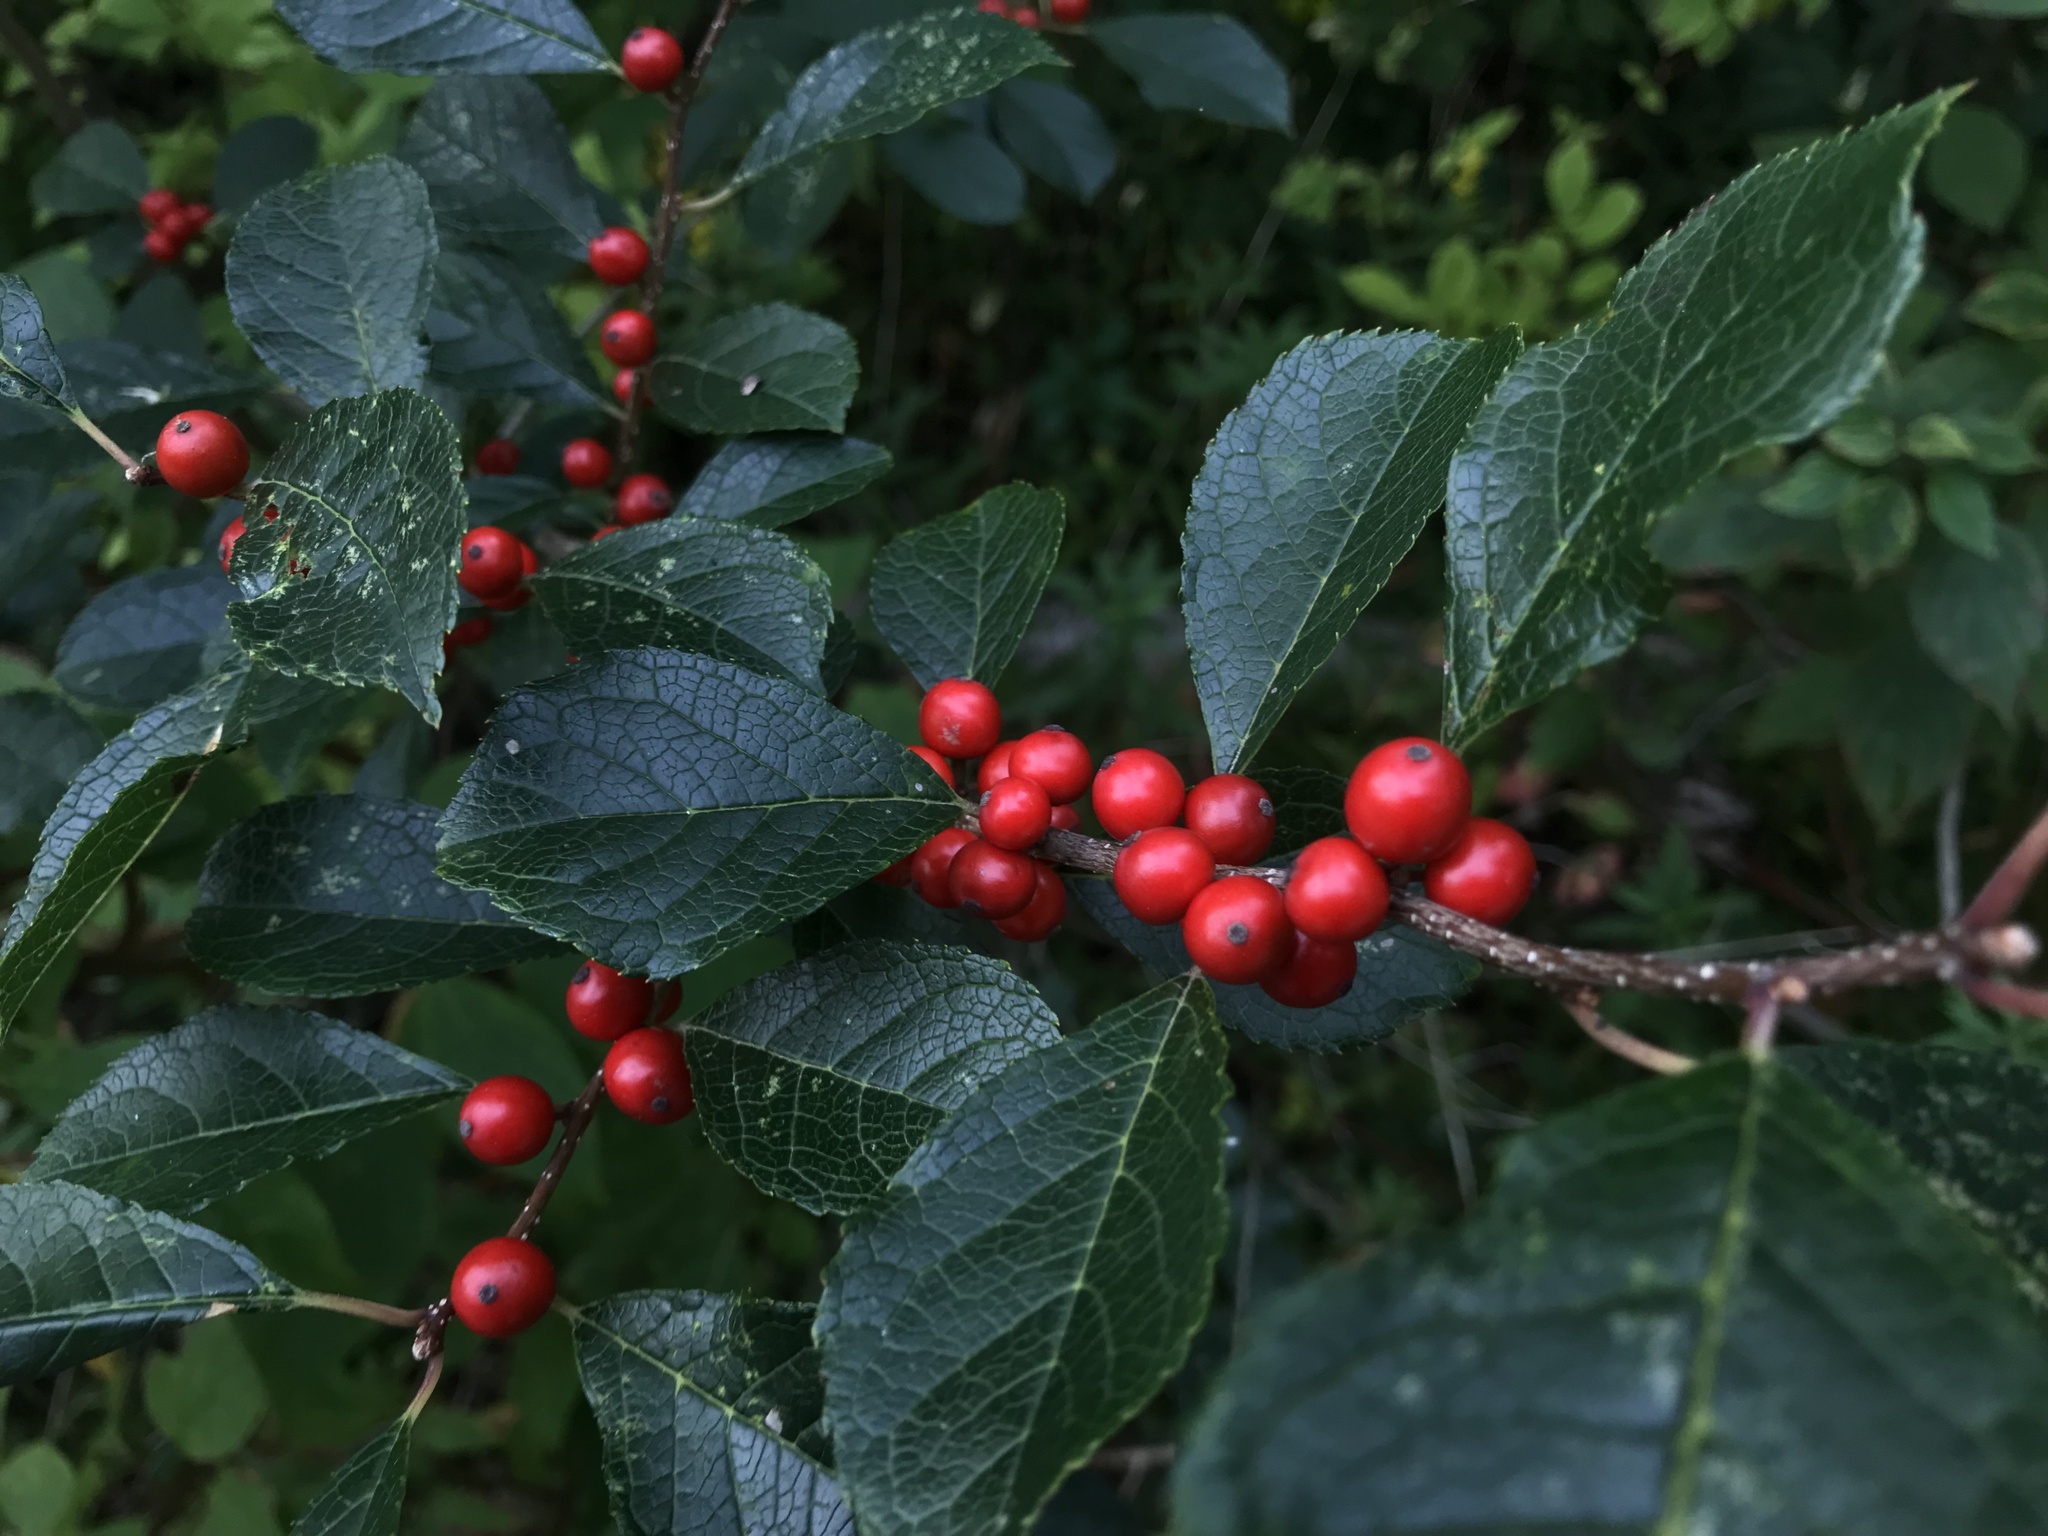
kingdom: Plantae
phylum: Tracheophyta
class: Magnoliopsida
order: Aquifoliales
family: Aquifoliaceae
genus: Ilex
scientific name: Ilex verticillata
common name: Virginia winterberry
